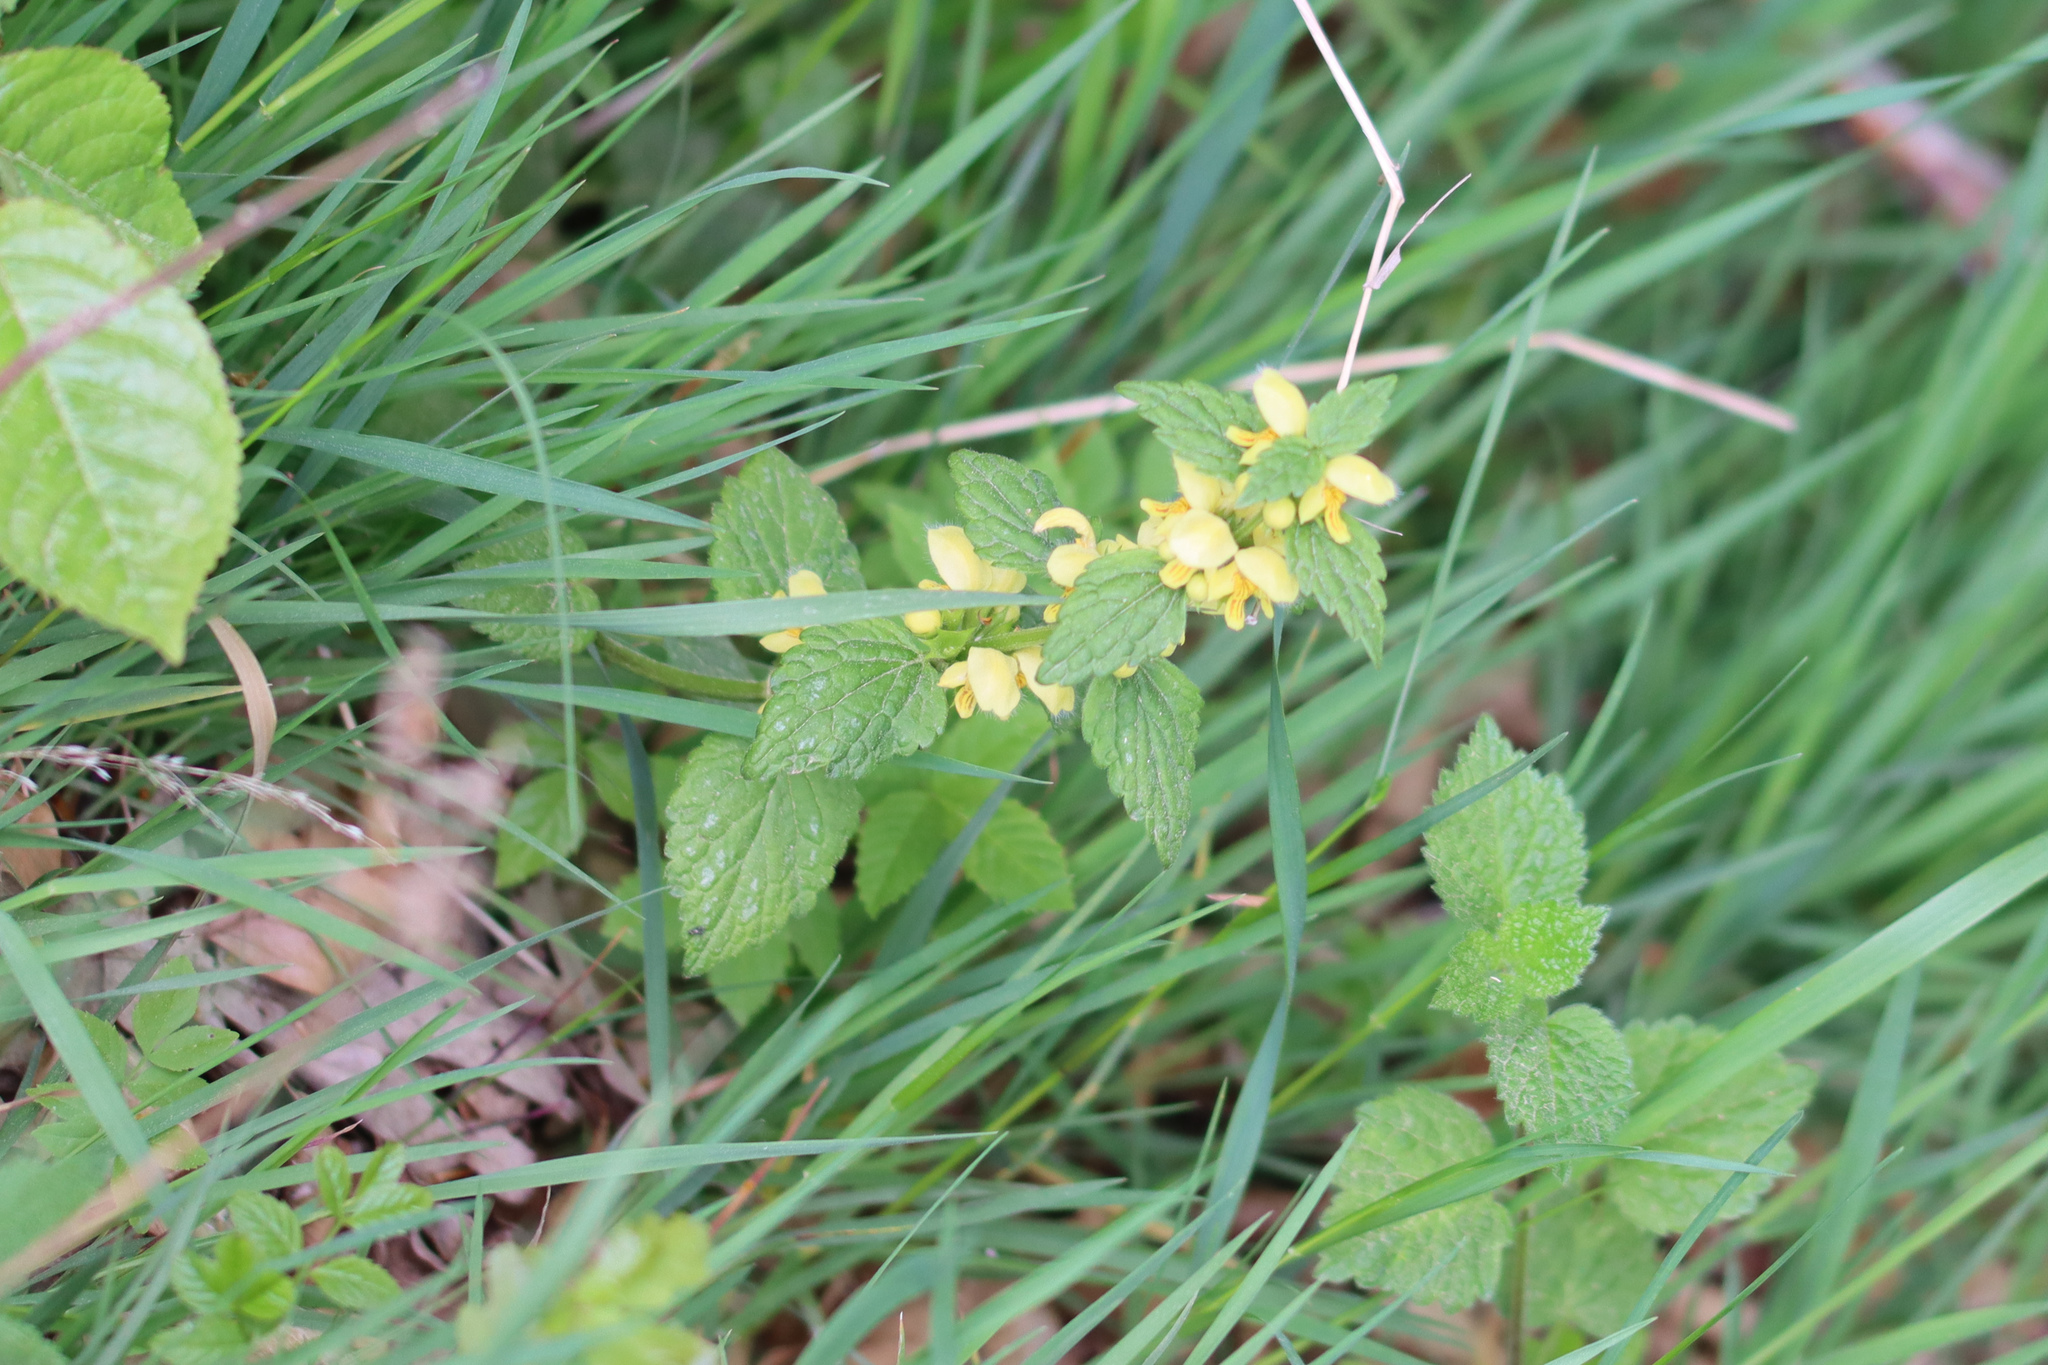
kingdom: Plantae
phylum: Tracheophyta
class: Magnoliopsida
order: Lamiales
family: Lamiaceae
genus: Lamium
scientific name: Lamium galeobdolon
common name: Yellow archangel
